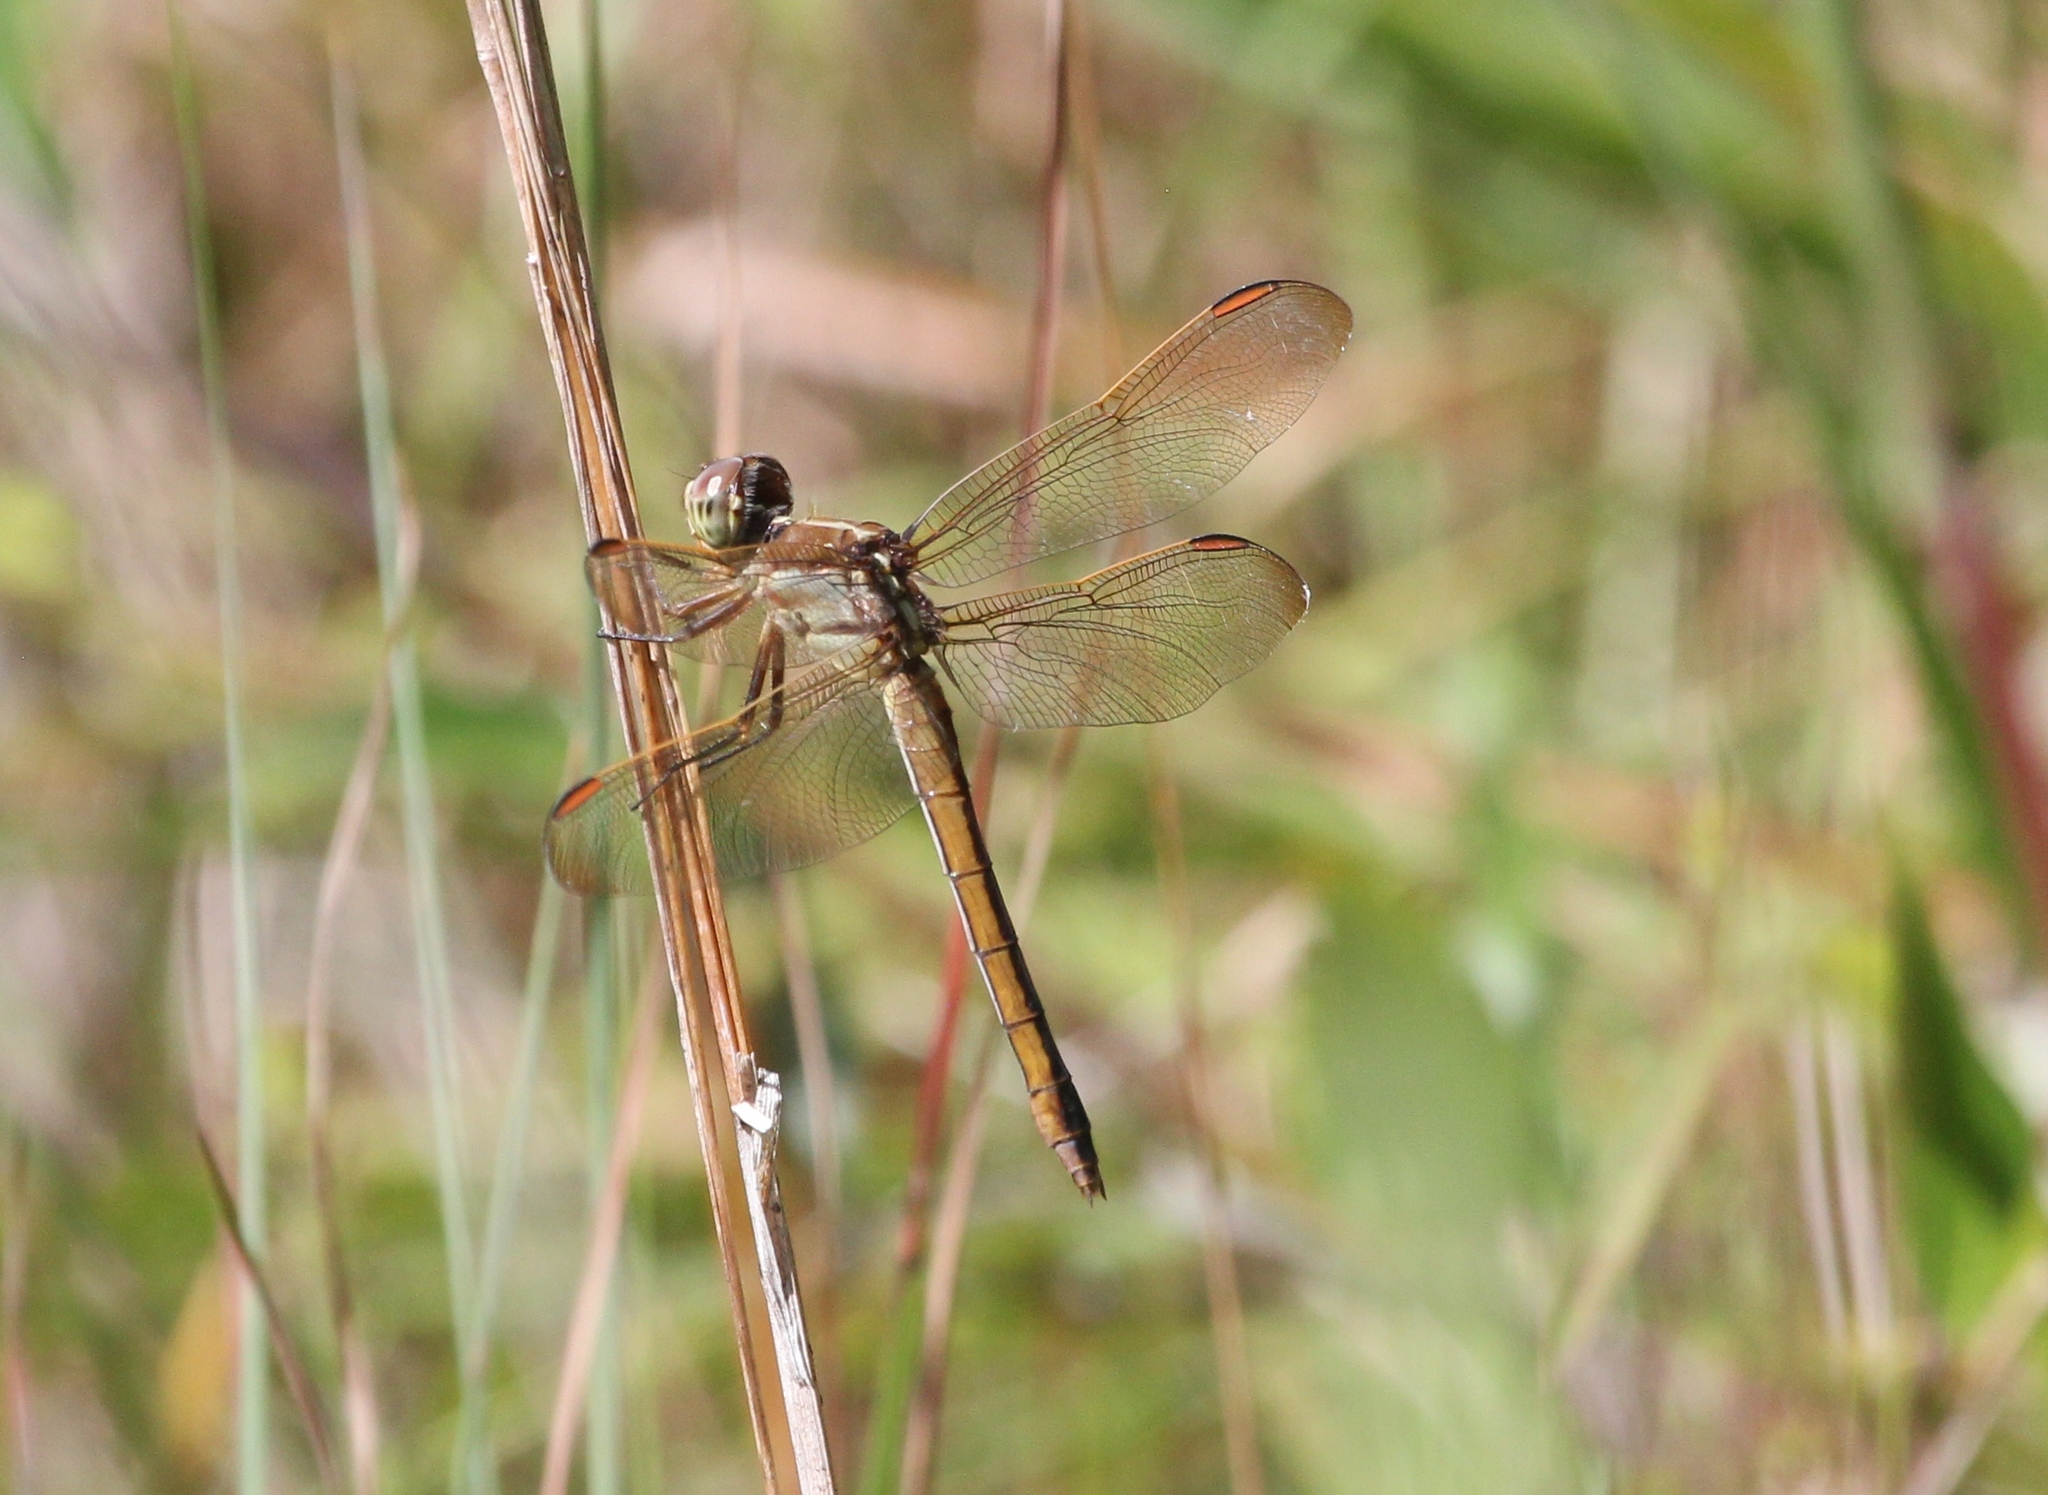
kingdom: Animalia
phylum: Arthropoda
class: Insecta
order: Odonata
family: Libellulidae
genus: Libellula
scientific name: Libellula auripennis
